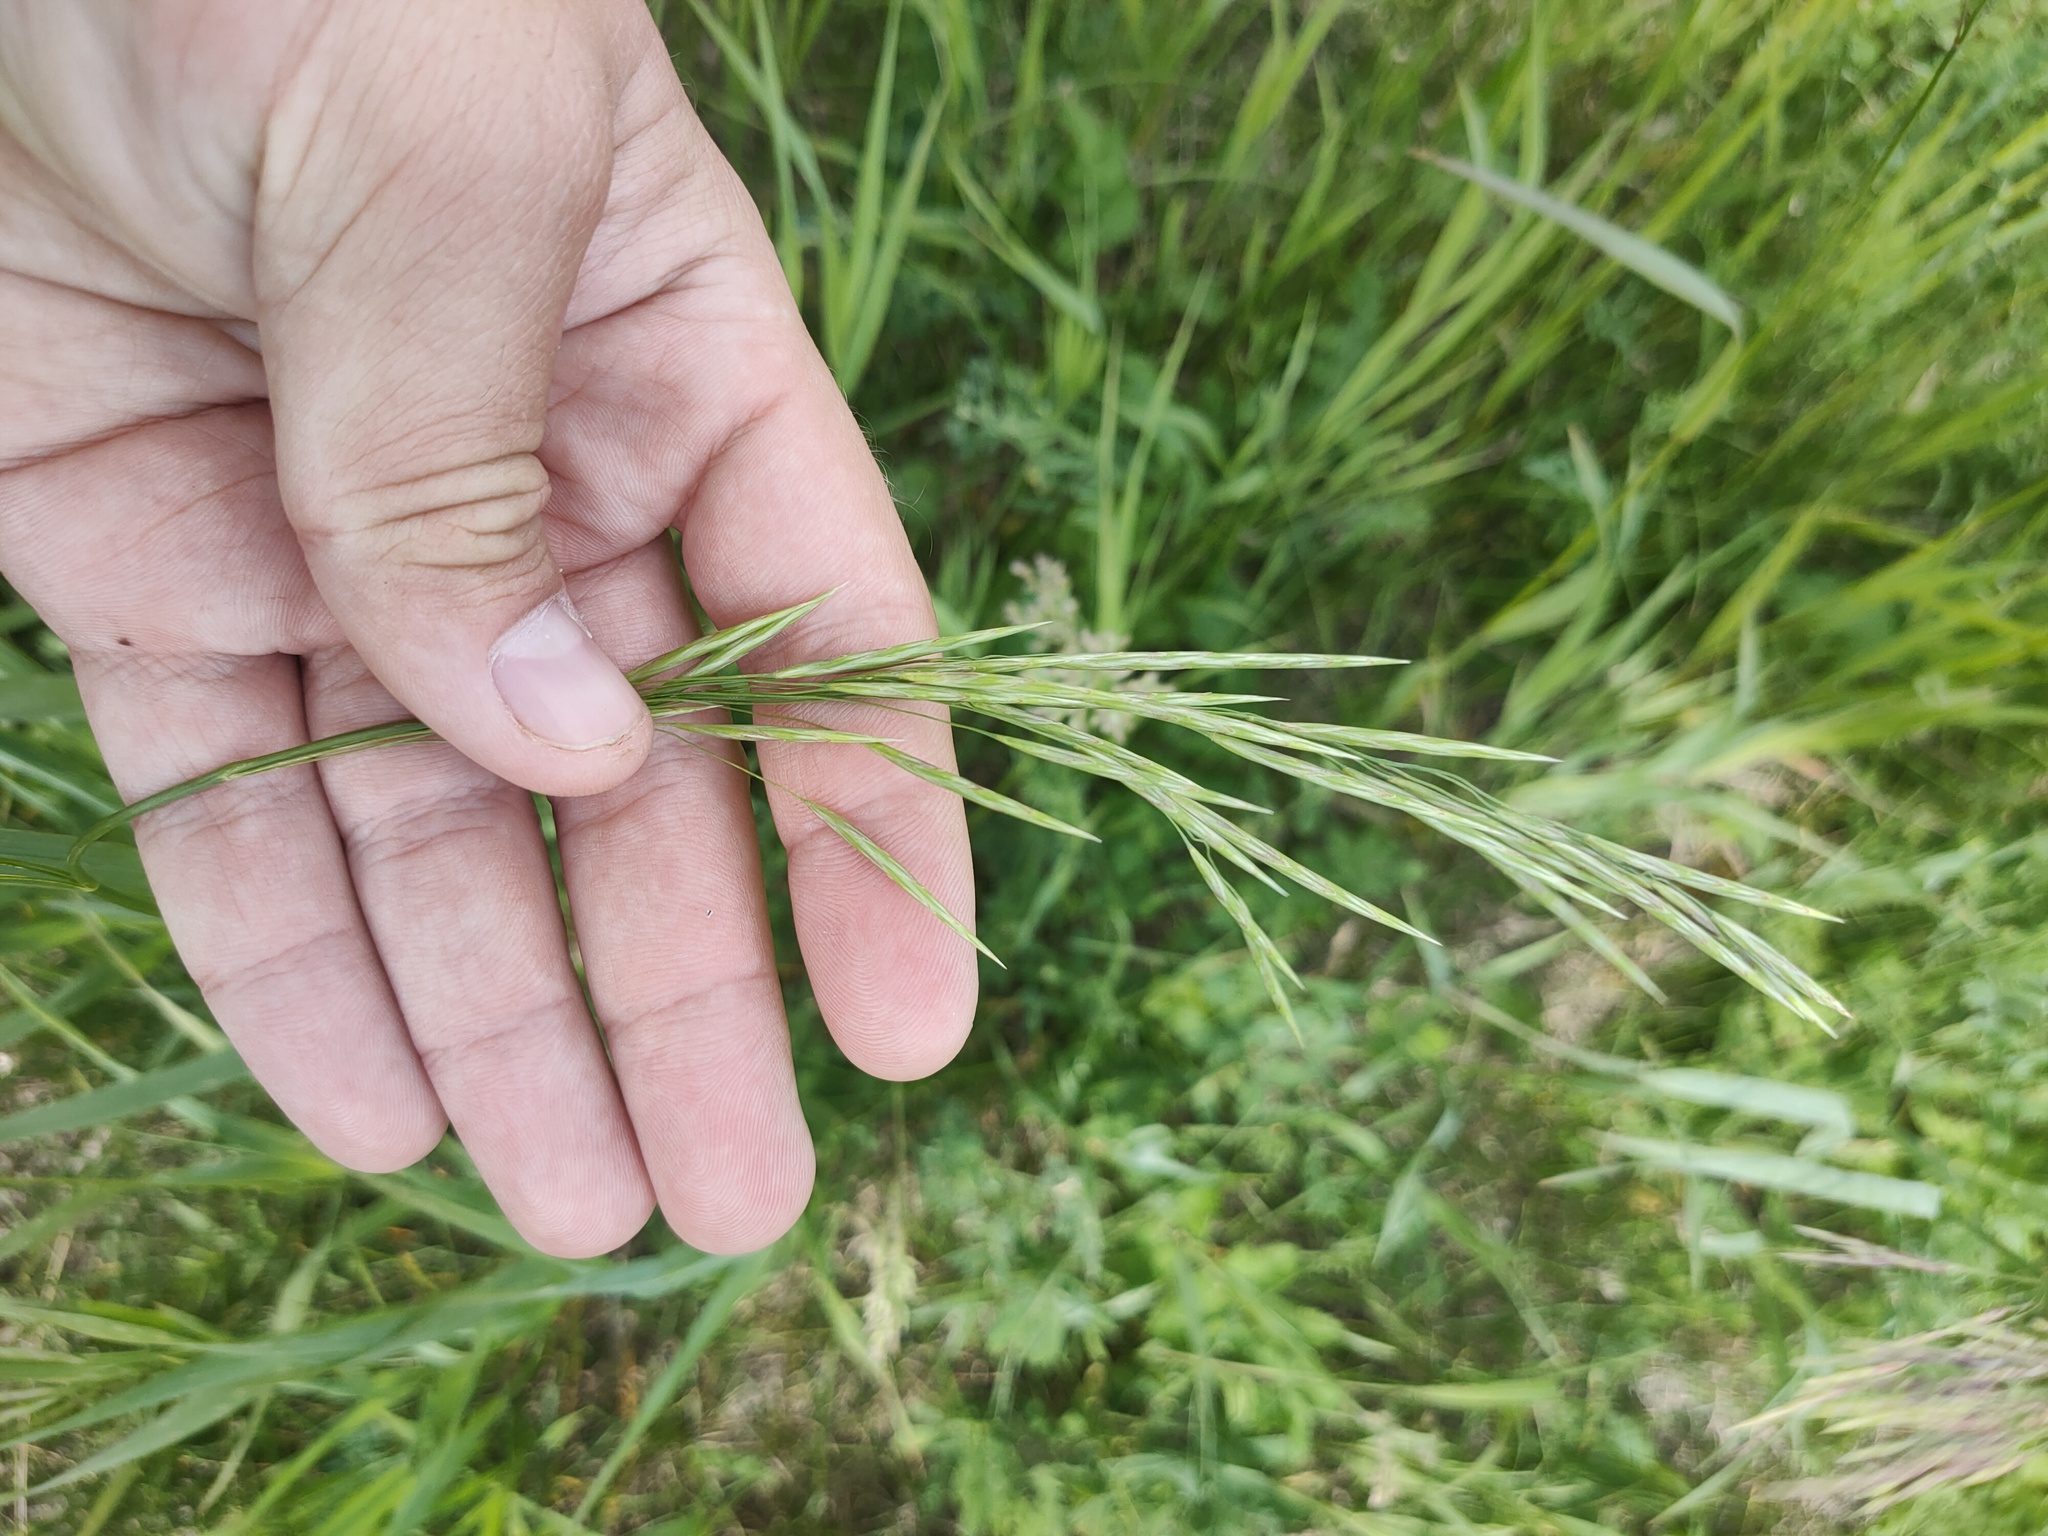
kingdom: Plantae
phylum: Tracheophyta
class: Liliopsida
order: Poales
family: Poaceae
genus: Bromus
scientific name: Bromus inermis
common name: Smooth brome
